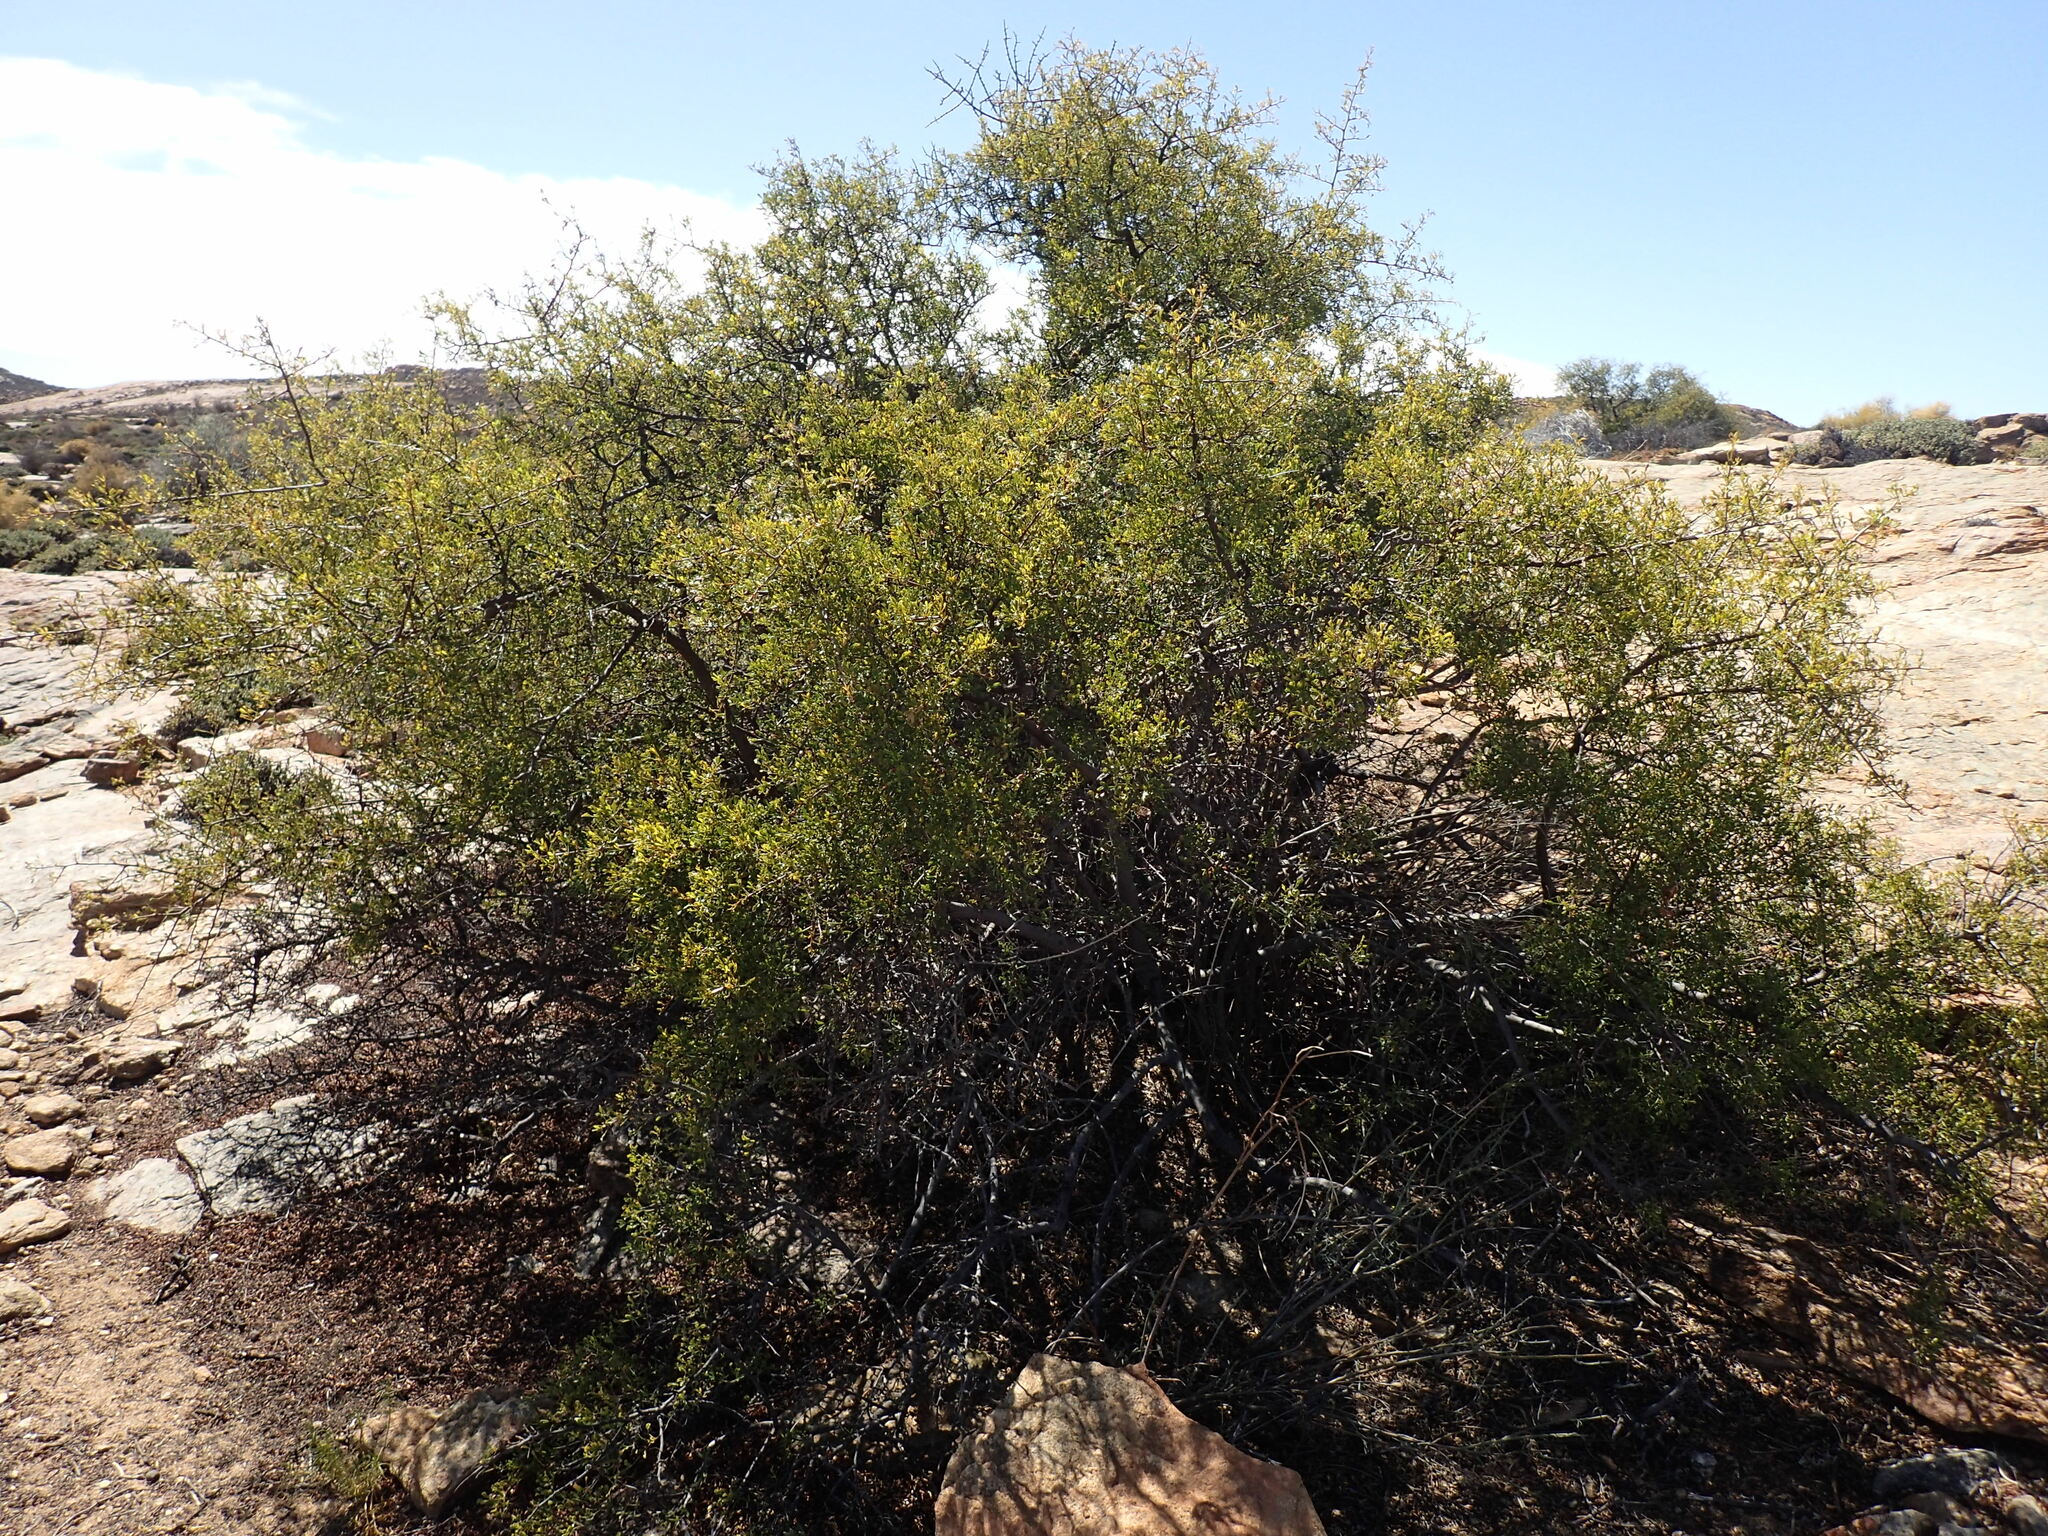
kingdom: Plantae
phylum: Tracheophyta
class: Magnoliopsida
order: Sapindales
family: Anacardiaceae
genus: Searsia
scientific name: Searsia undulata
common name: Namaqua kunibush
